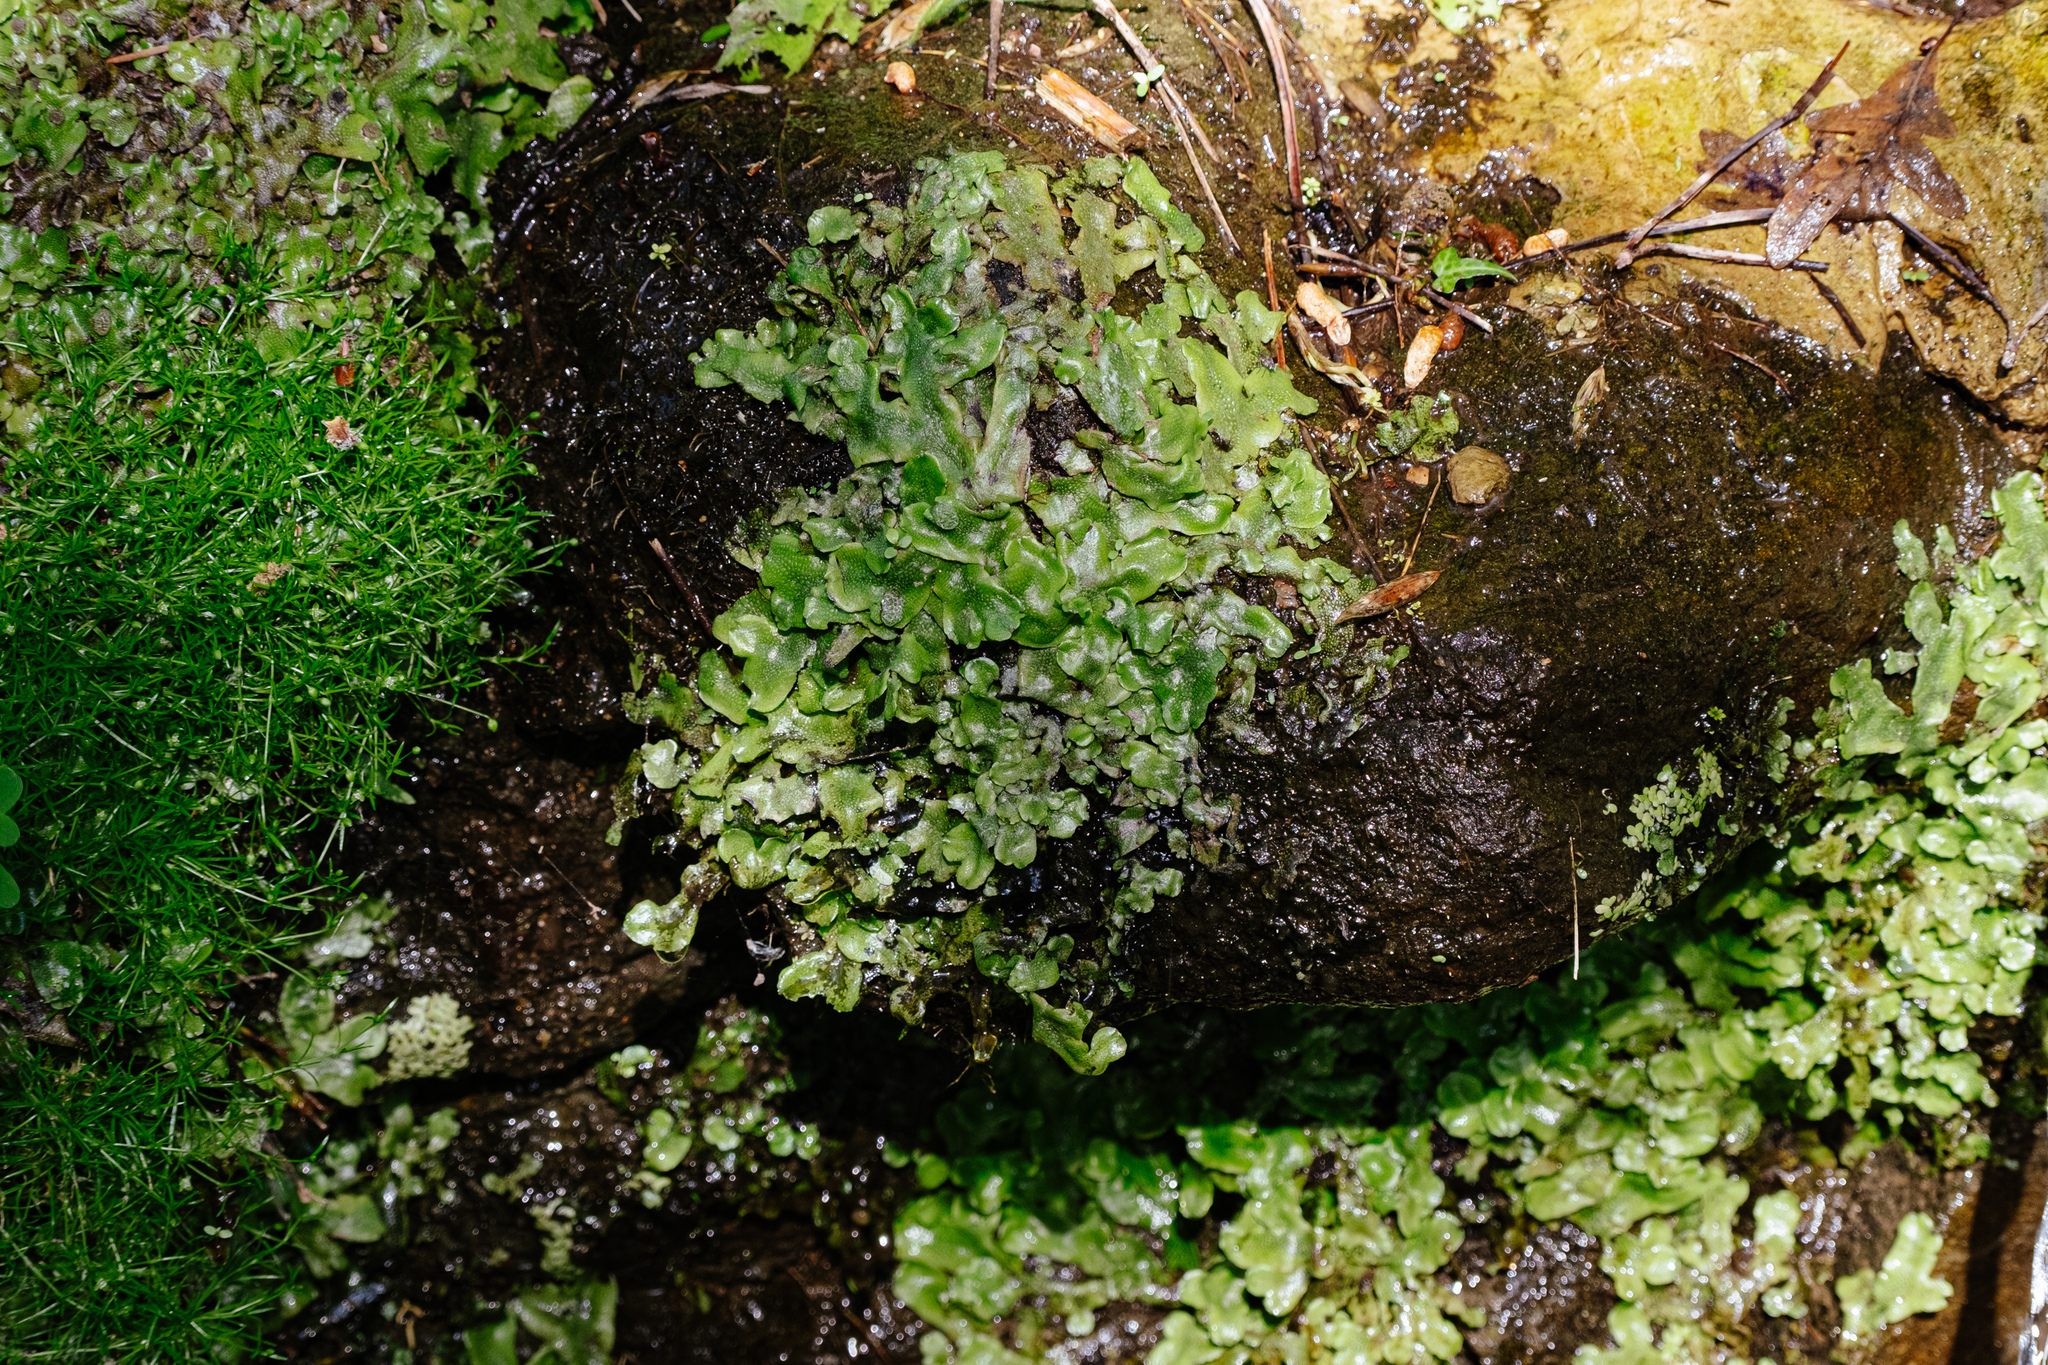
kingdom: Plantae
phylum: Marchantiophyta
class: Marchantiopsida
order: Marchantiales
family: Conocephalaceae
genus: Conocephalum
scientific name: Conocephalum conicum
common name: Great scented liverwort
